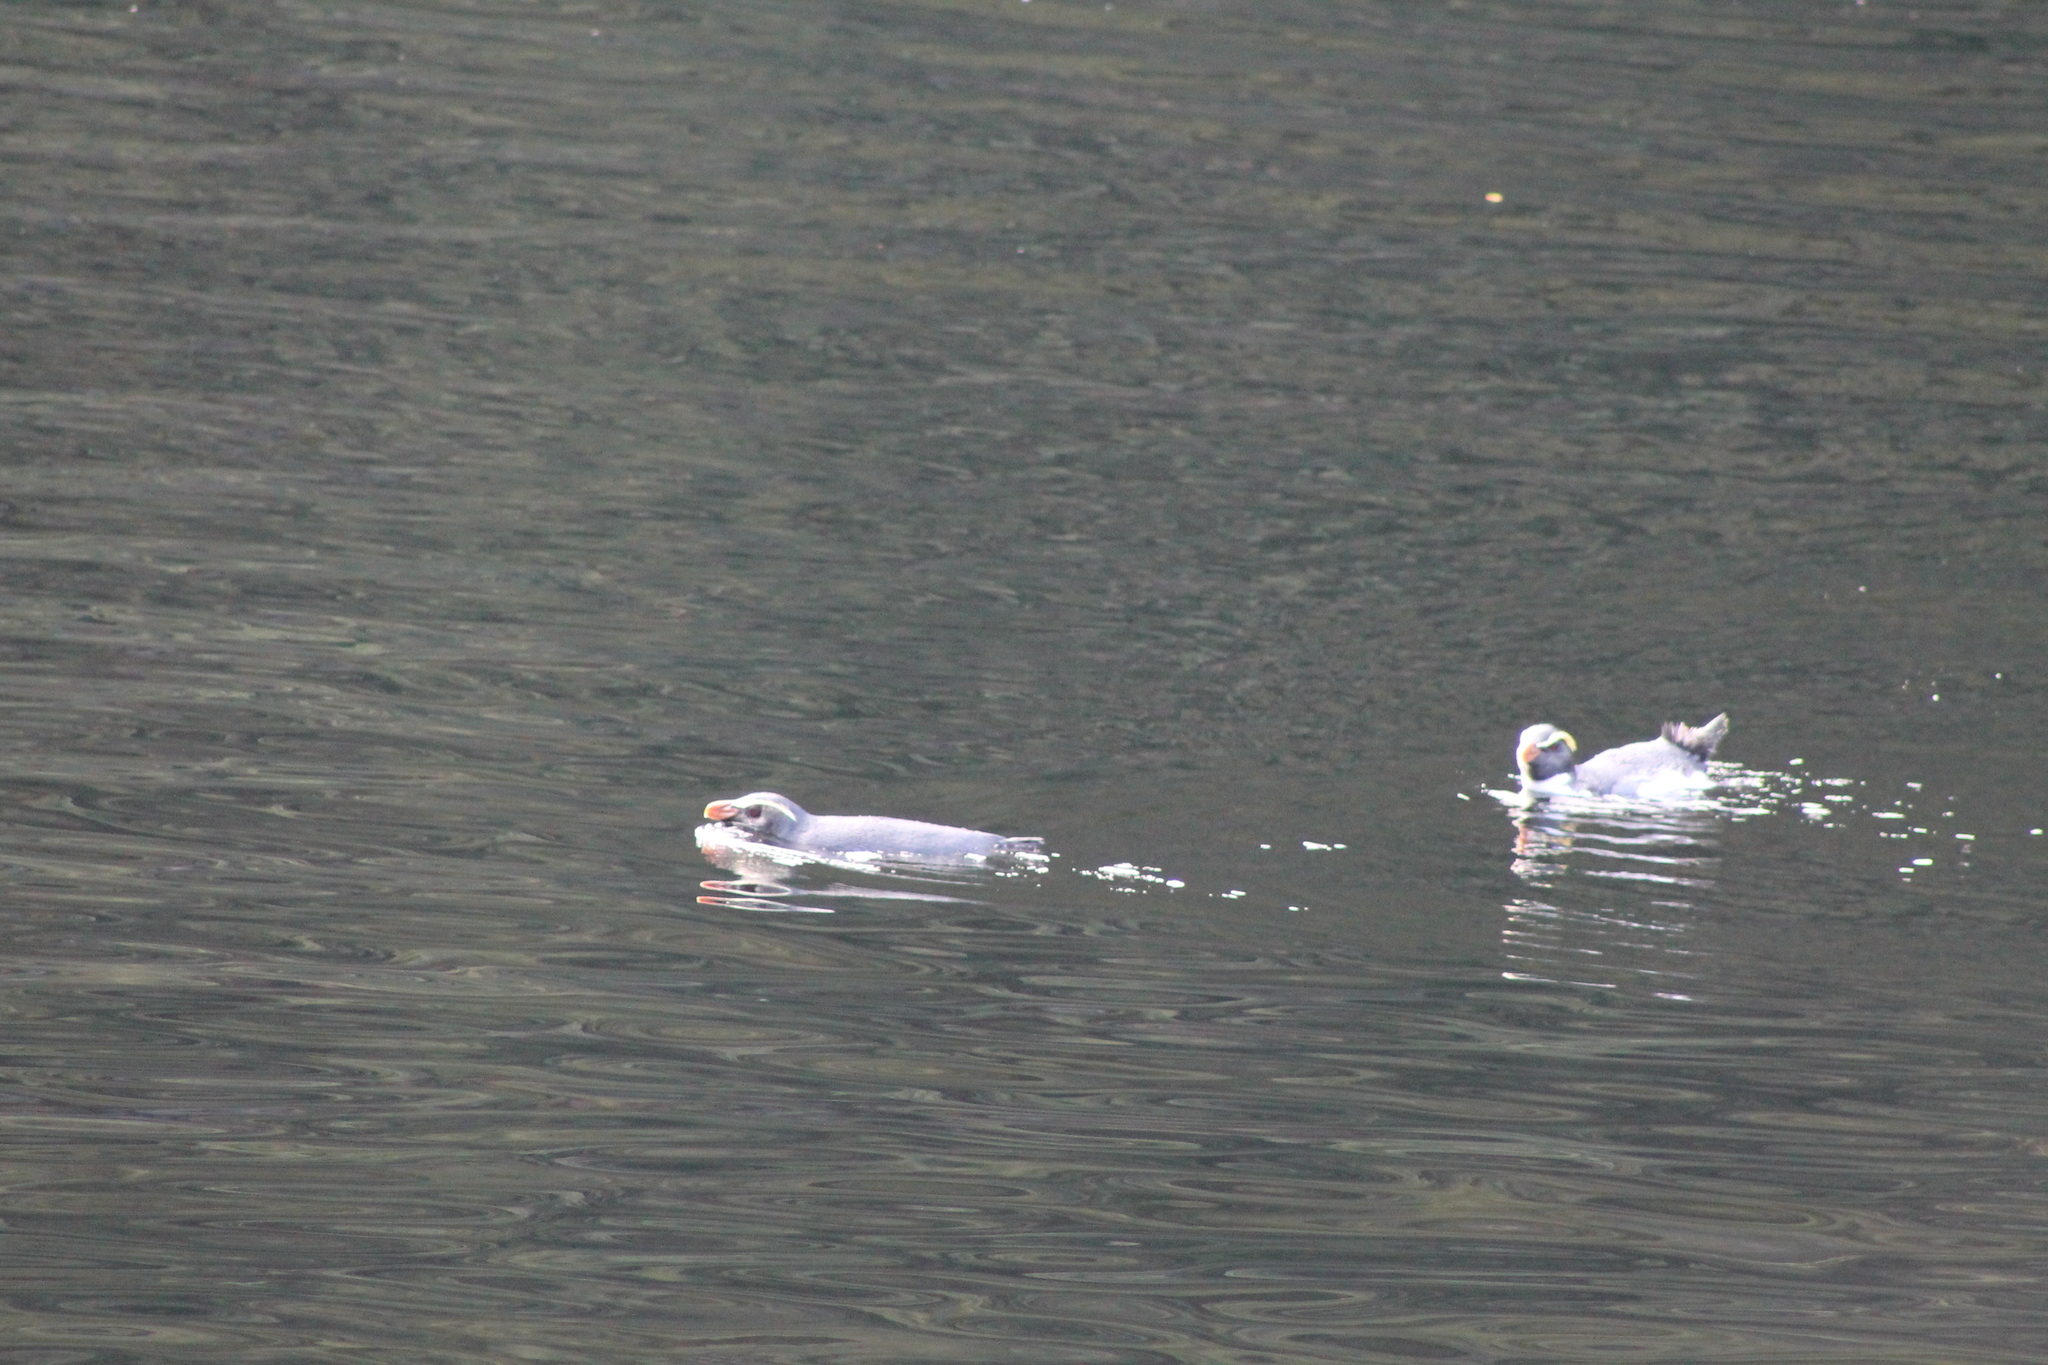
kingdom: Animalia
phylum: Chordata
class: Aves
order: Sphenisciformes
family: Spheniscidae
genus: Eudyptes
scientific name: Eudyptes pachyrhynchus
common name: Fiordland penguin
